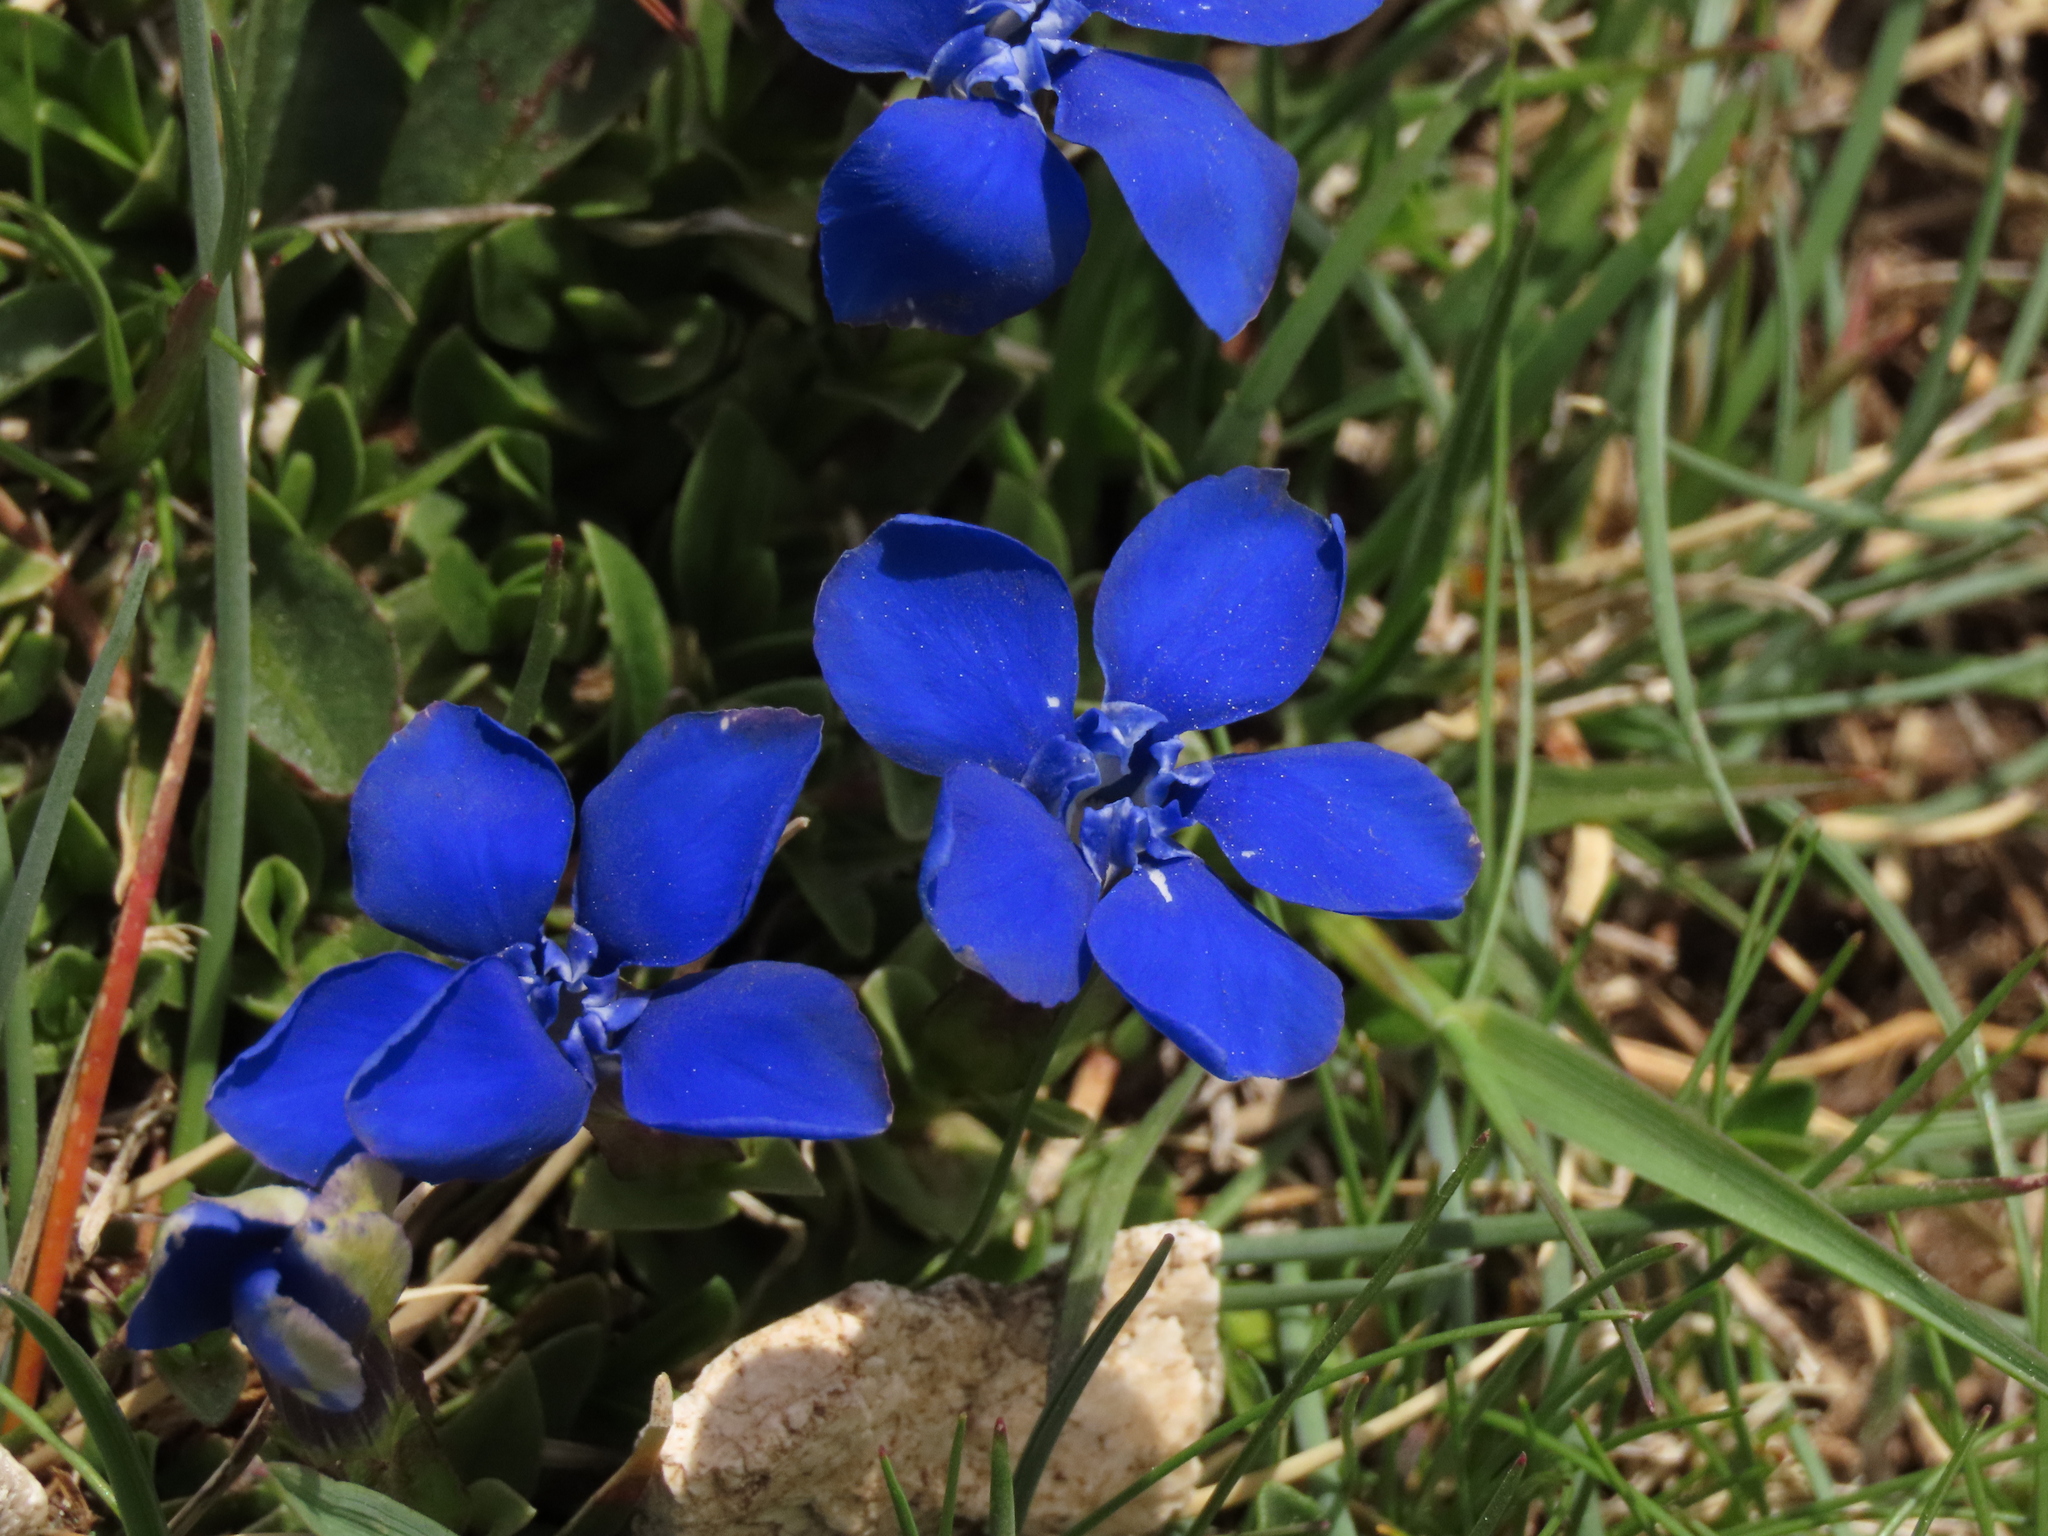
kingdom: Plantae
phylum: Tracheophyta
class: Magnoliopsida
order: Gentianales
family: Gentianaceae
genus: Gentiana
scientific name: Gentiana verna
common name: Spring gentian
